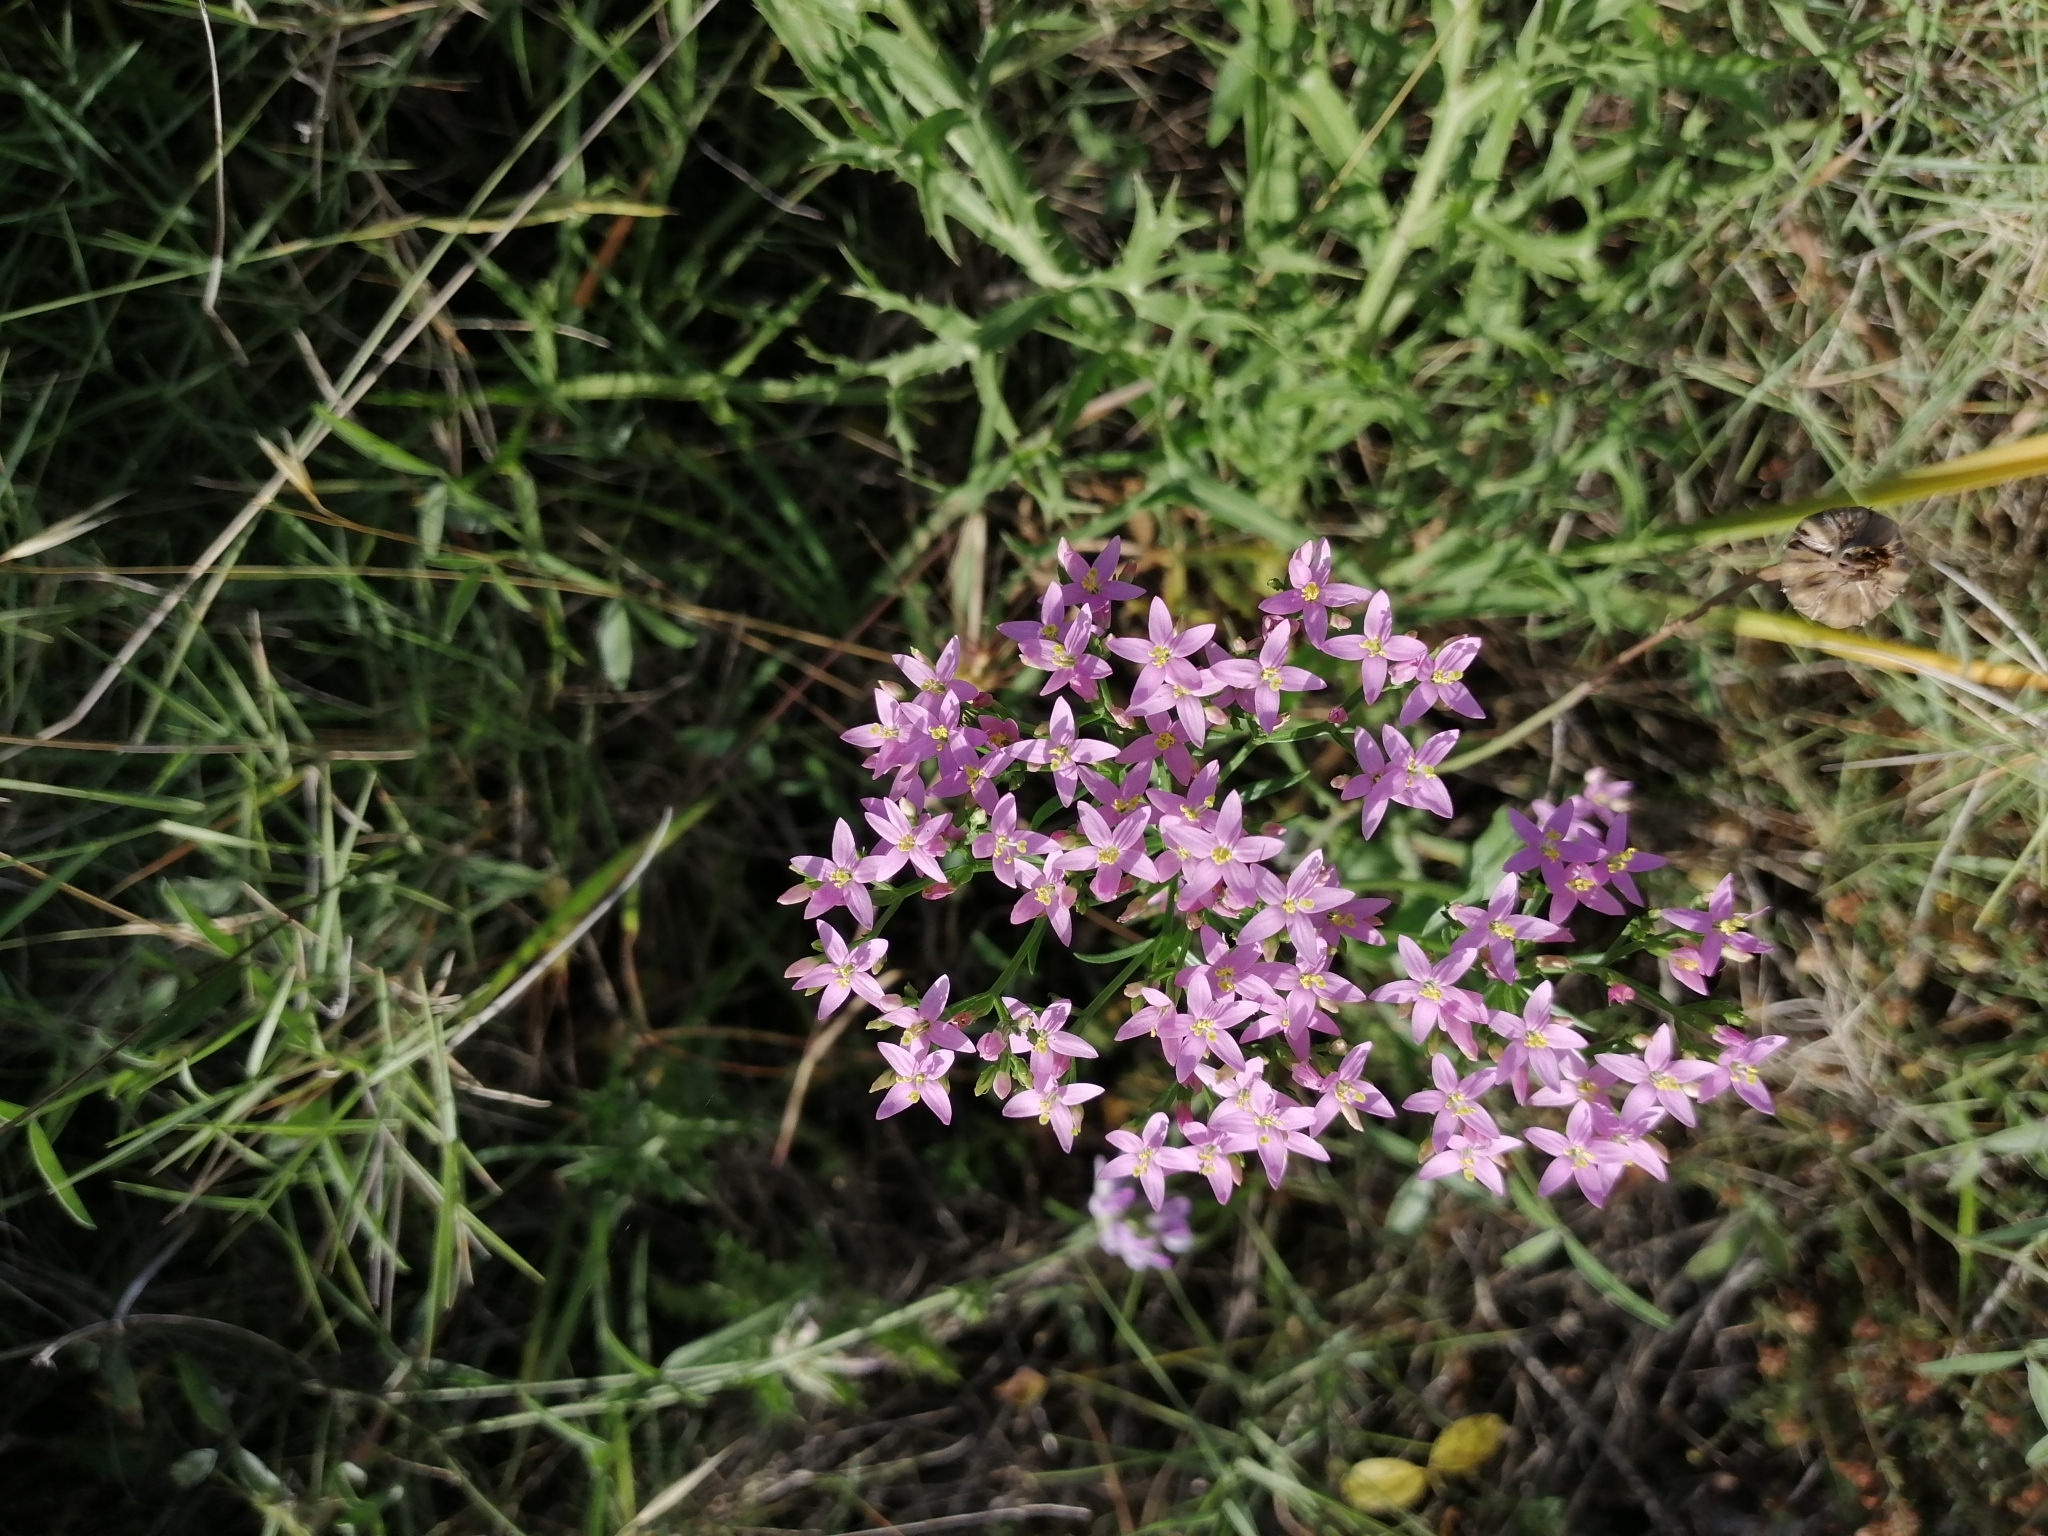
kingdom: Plantae
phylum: Tracheophyta
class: Magnoliopsida
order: Gentianales
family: Gentianaceae
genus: Centaurium
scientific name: Centaurium erythraea
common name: Common centaury
